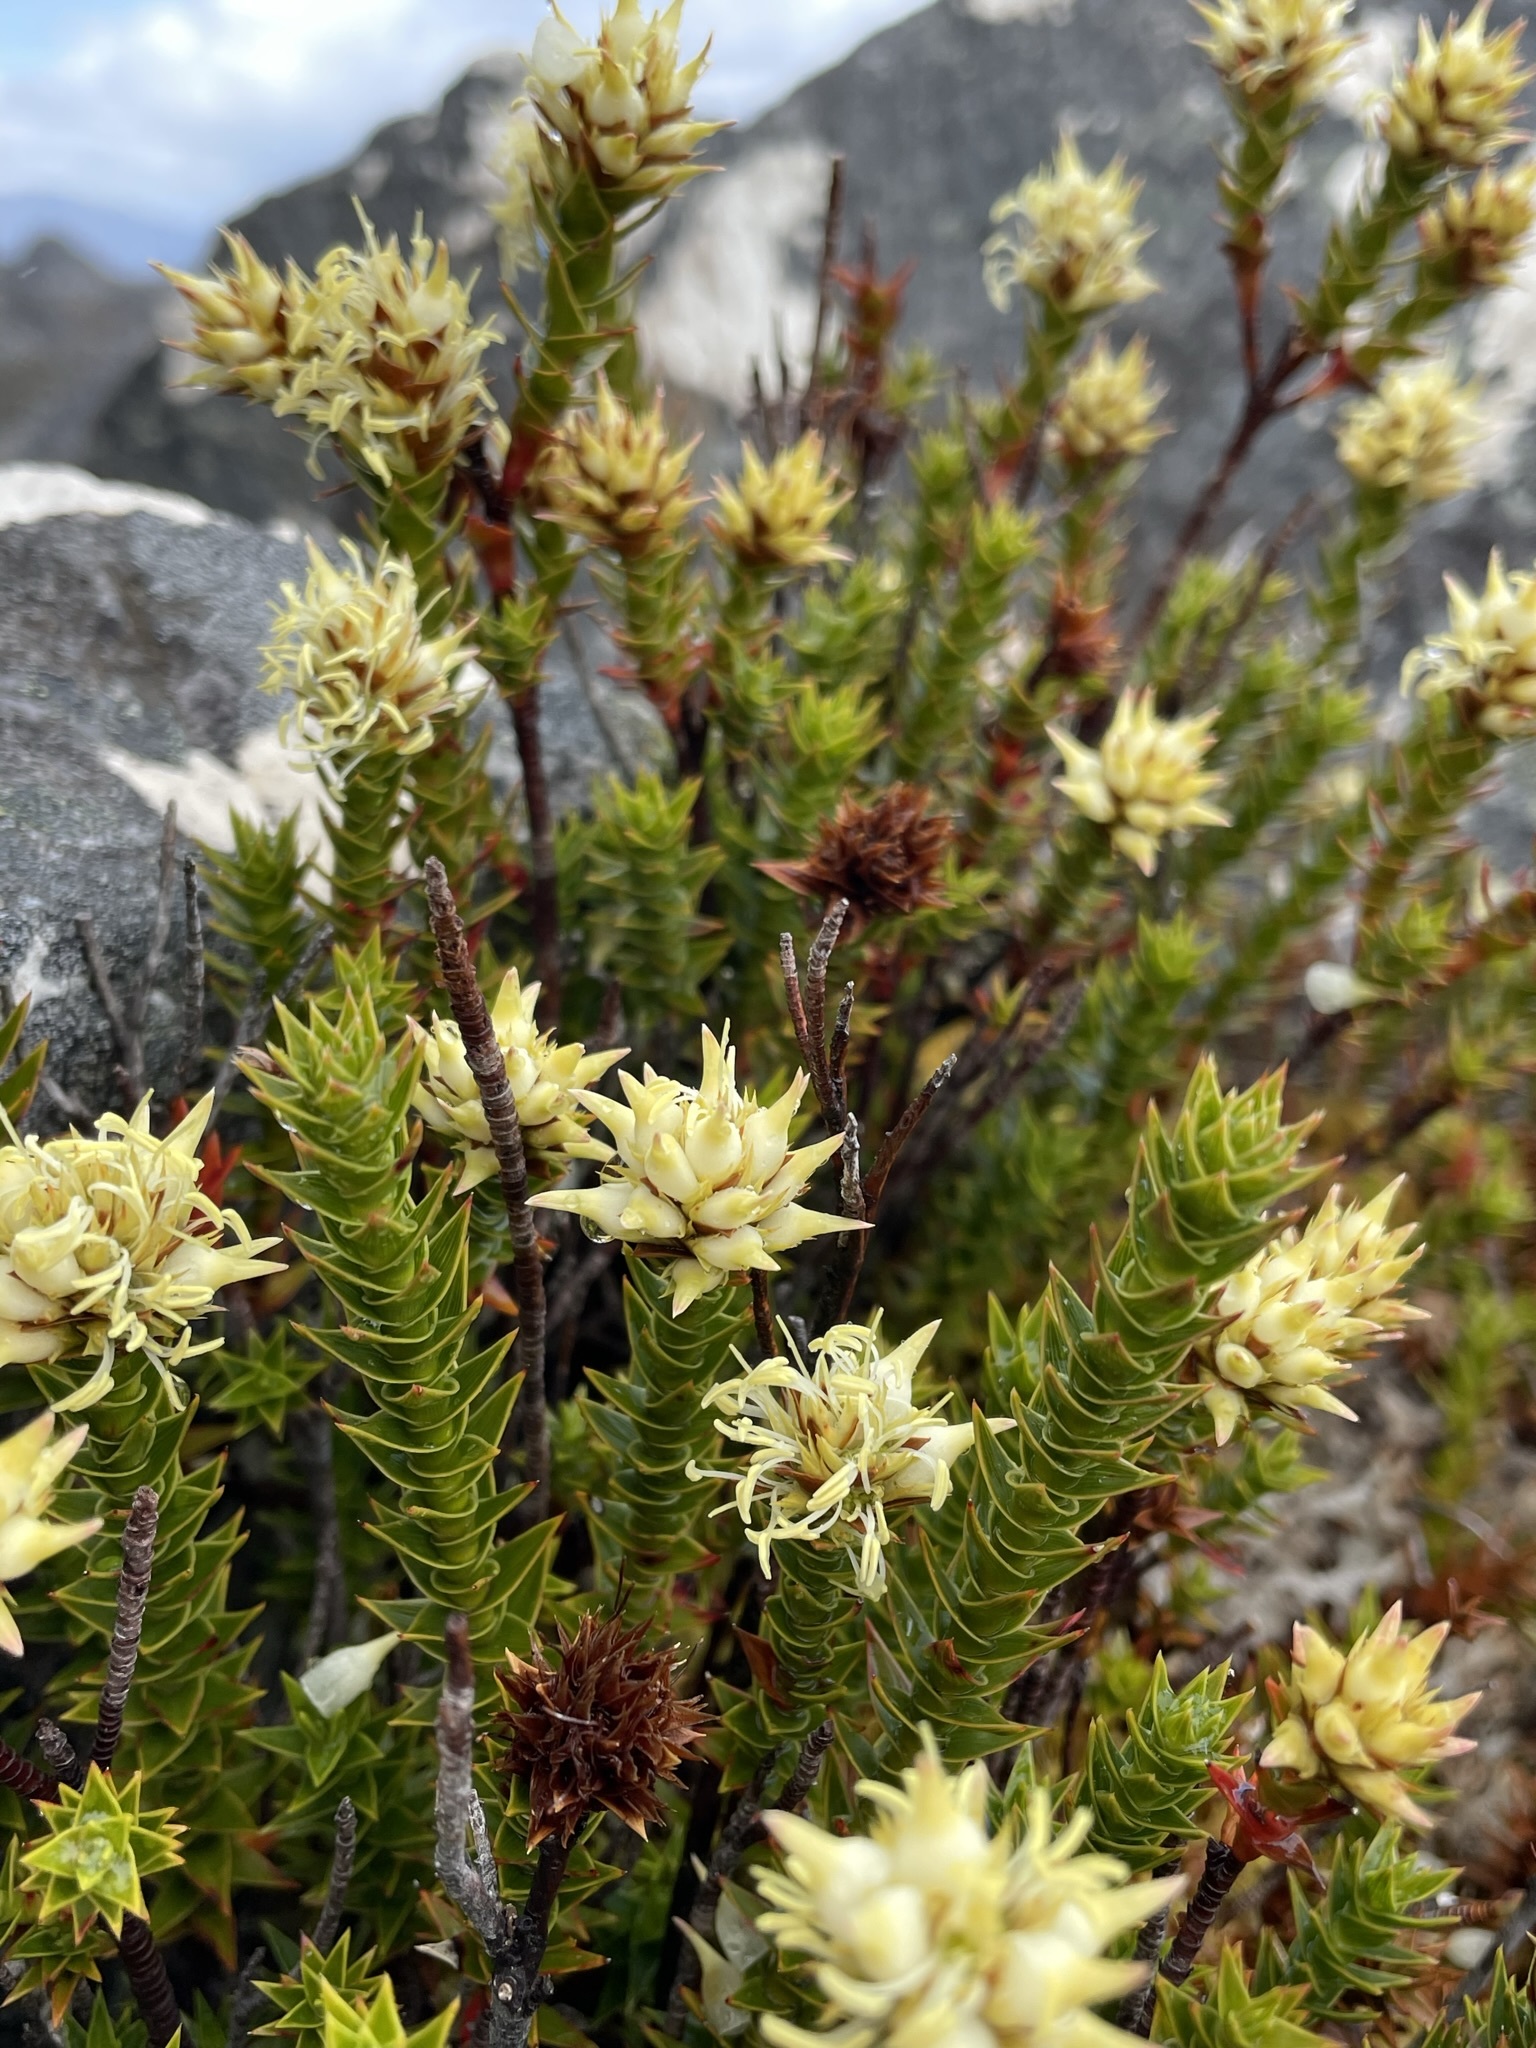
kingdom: Plantae
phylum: Tracheophyta
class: Magnoliopsida
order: Ericales
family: Ericaceae
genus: Dracophyllum
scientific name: Dracophyllum sprengelioides
